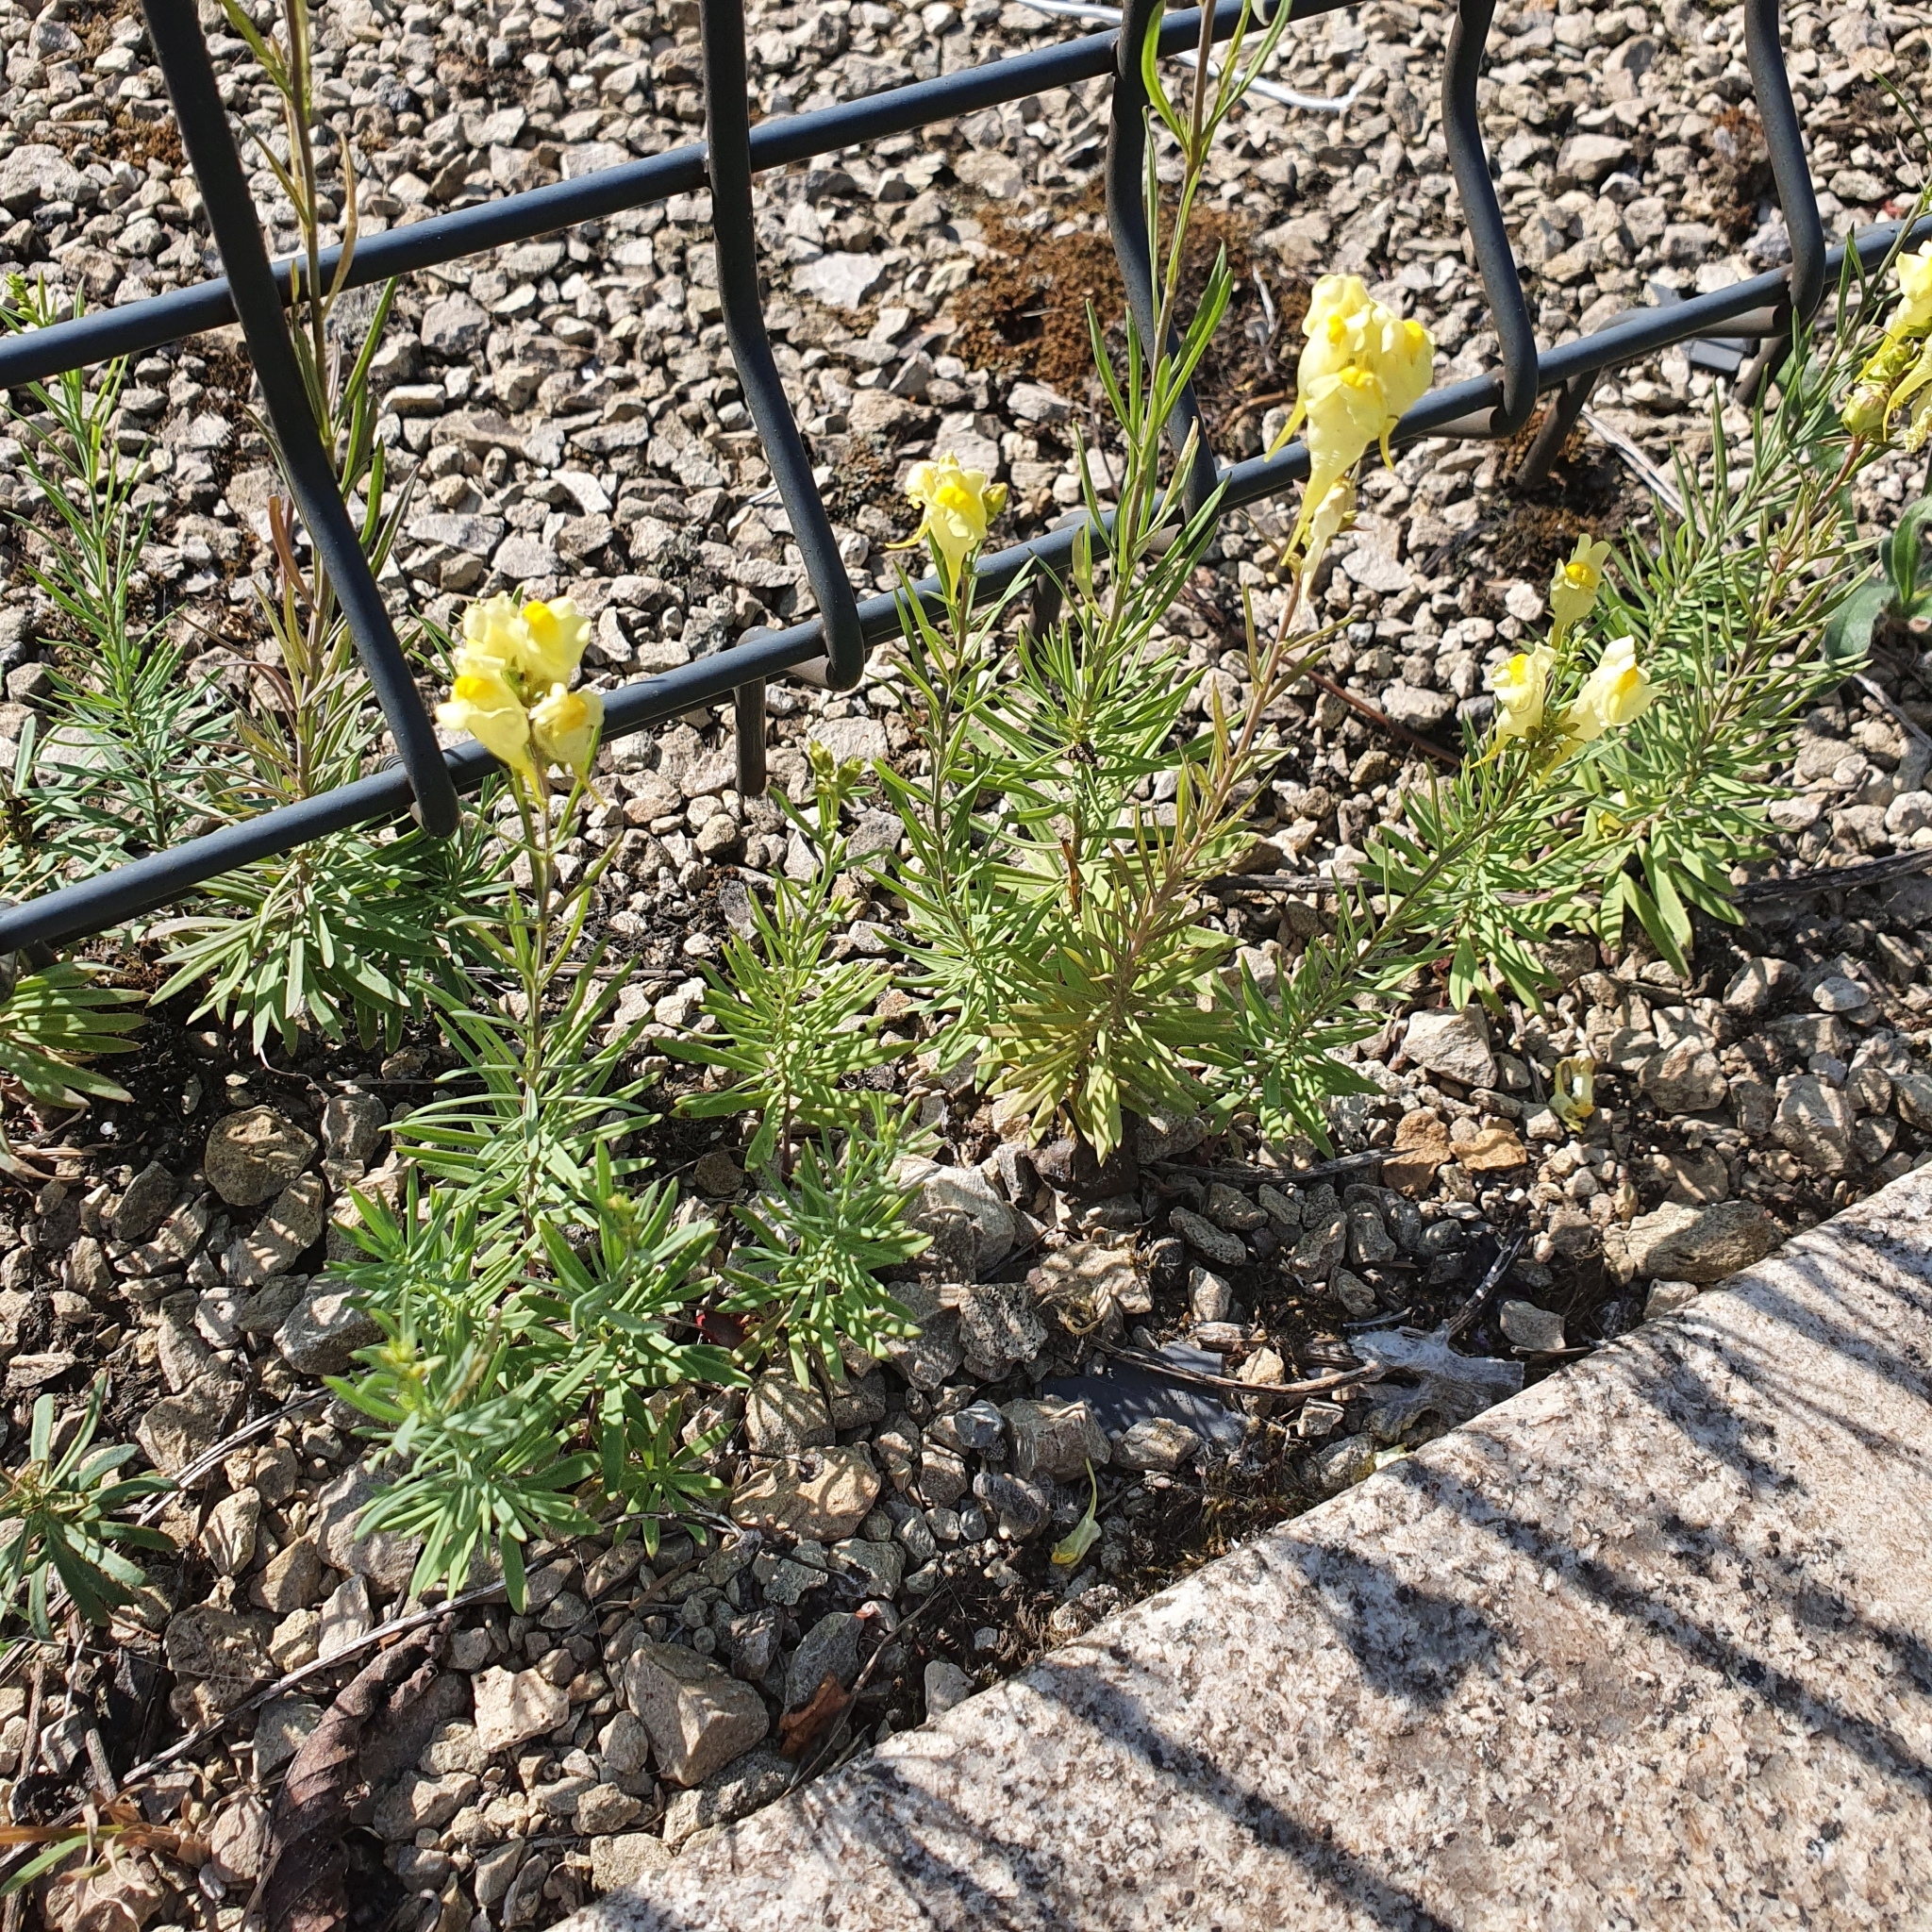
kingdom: Plantae
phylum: Tracheophyta
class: Magnoliopsida
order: Lamiales
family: Plantaginaceae
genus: Linaria
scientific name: Linaria vulgaris
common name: Butter and eggs
